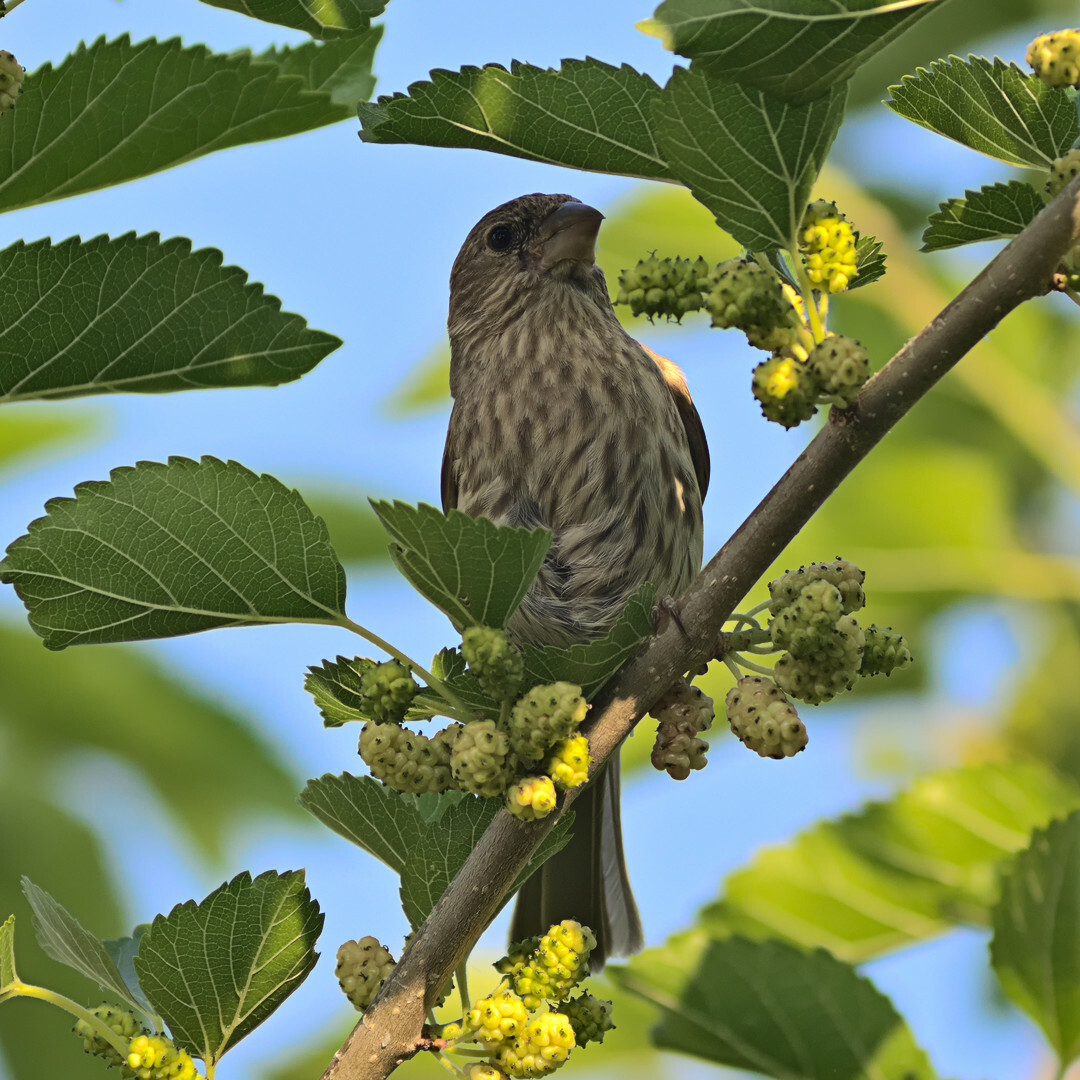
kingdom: Animalia
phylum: Chordata
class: Aves
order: Passeriformes
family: Fringillidae
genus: Haemorhous
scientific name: Haemorhous mexicanus
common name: House finch
